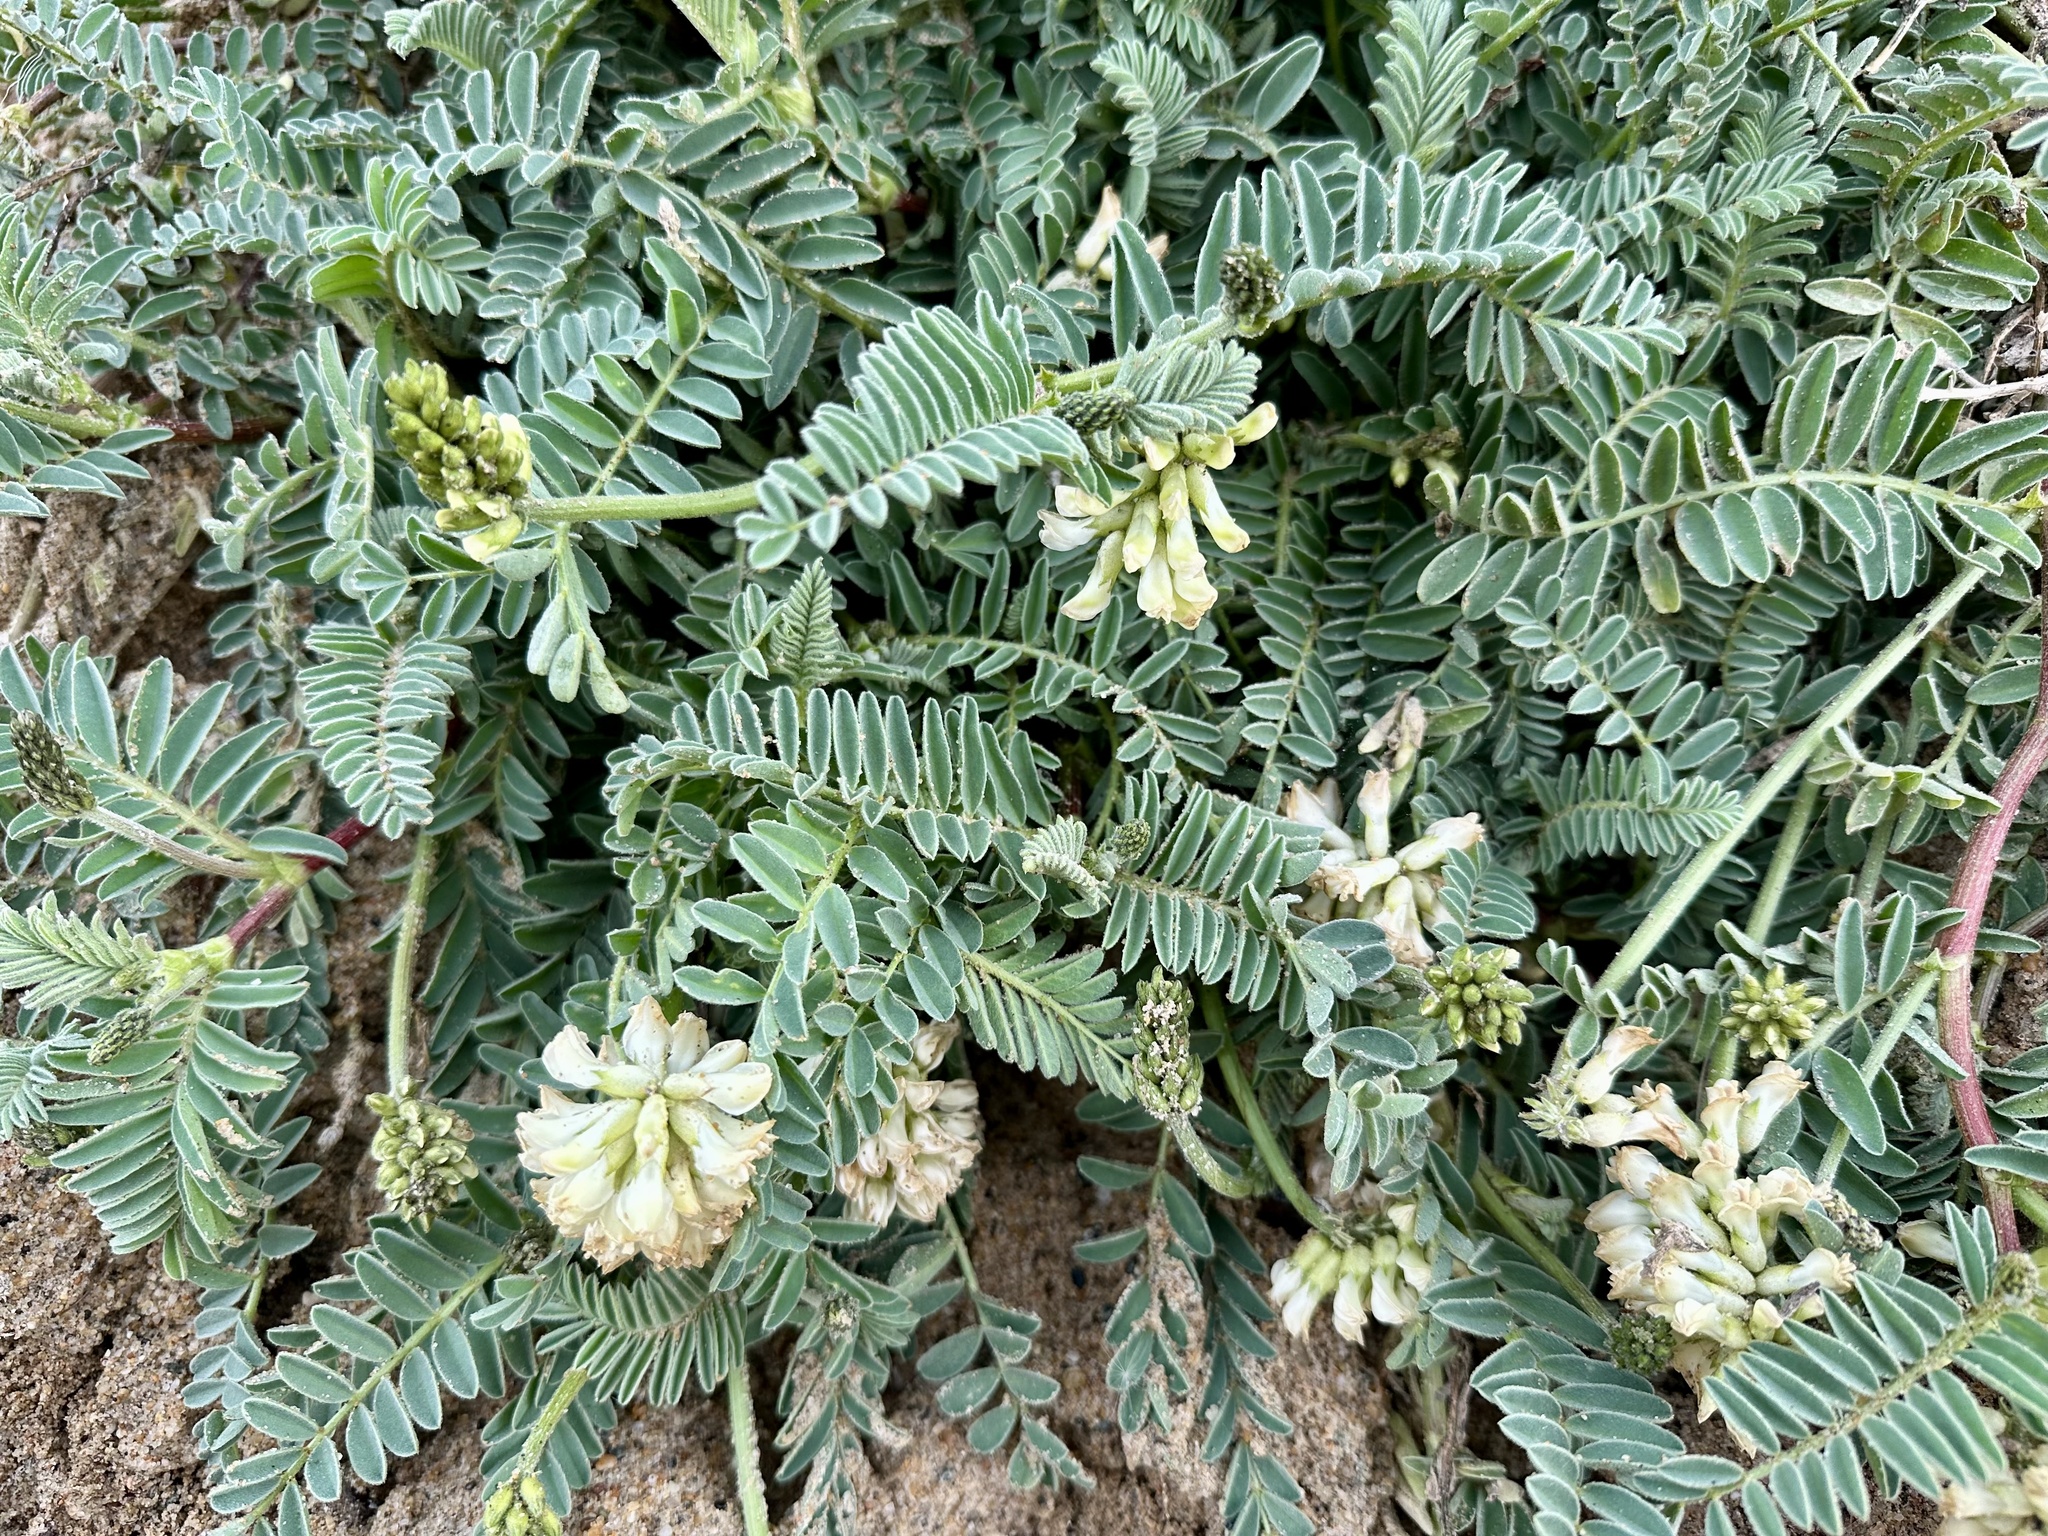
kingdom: Plantae
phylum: Tracheophyta
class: Magnoliopsida
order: Fabales
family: Fabaceae
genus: Astragalus
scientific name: Astragalus nuttallii
